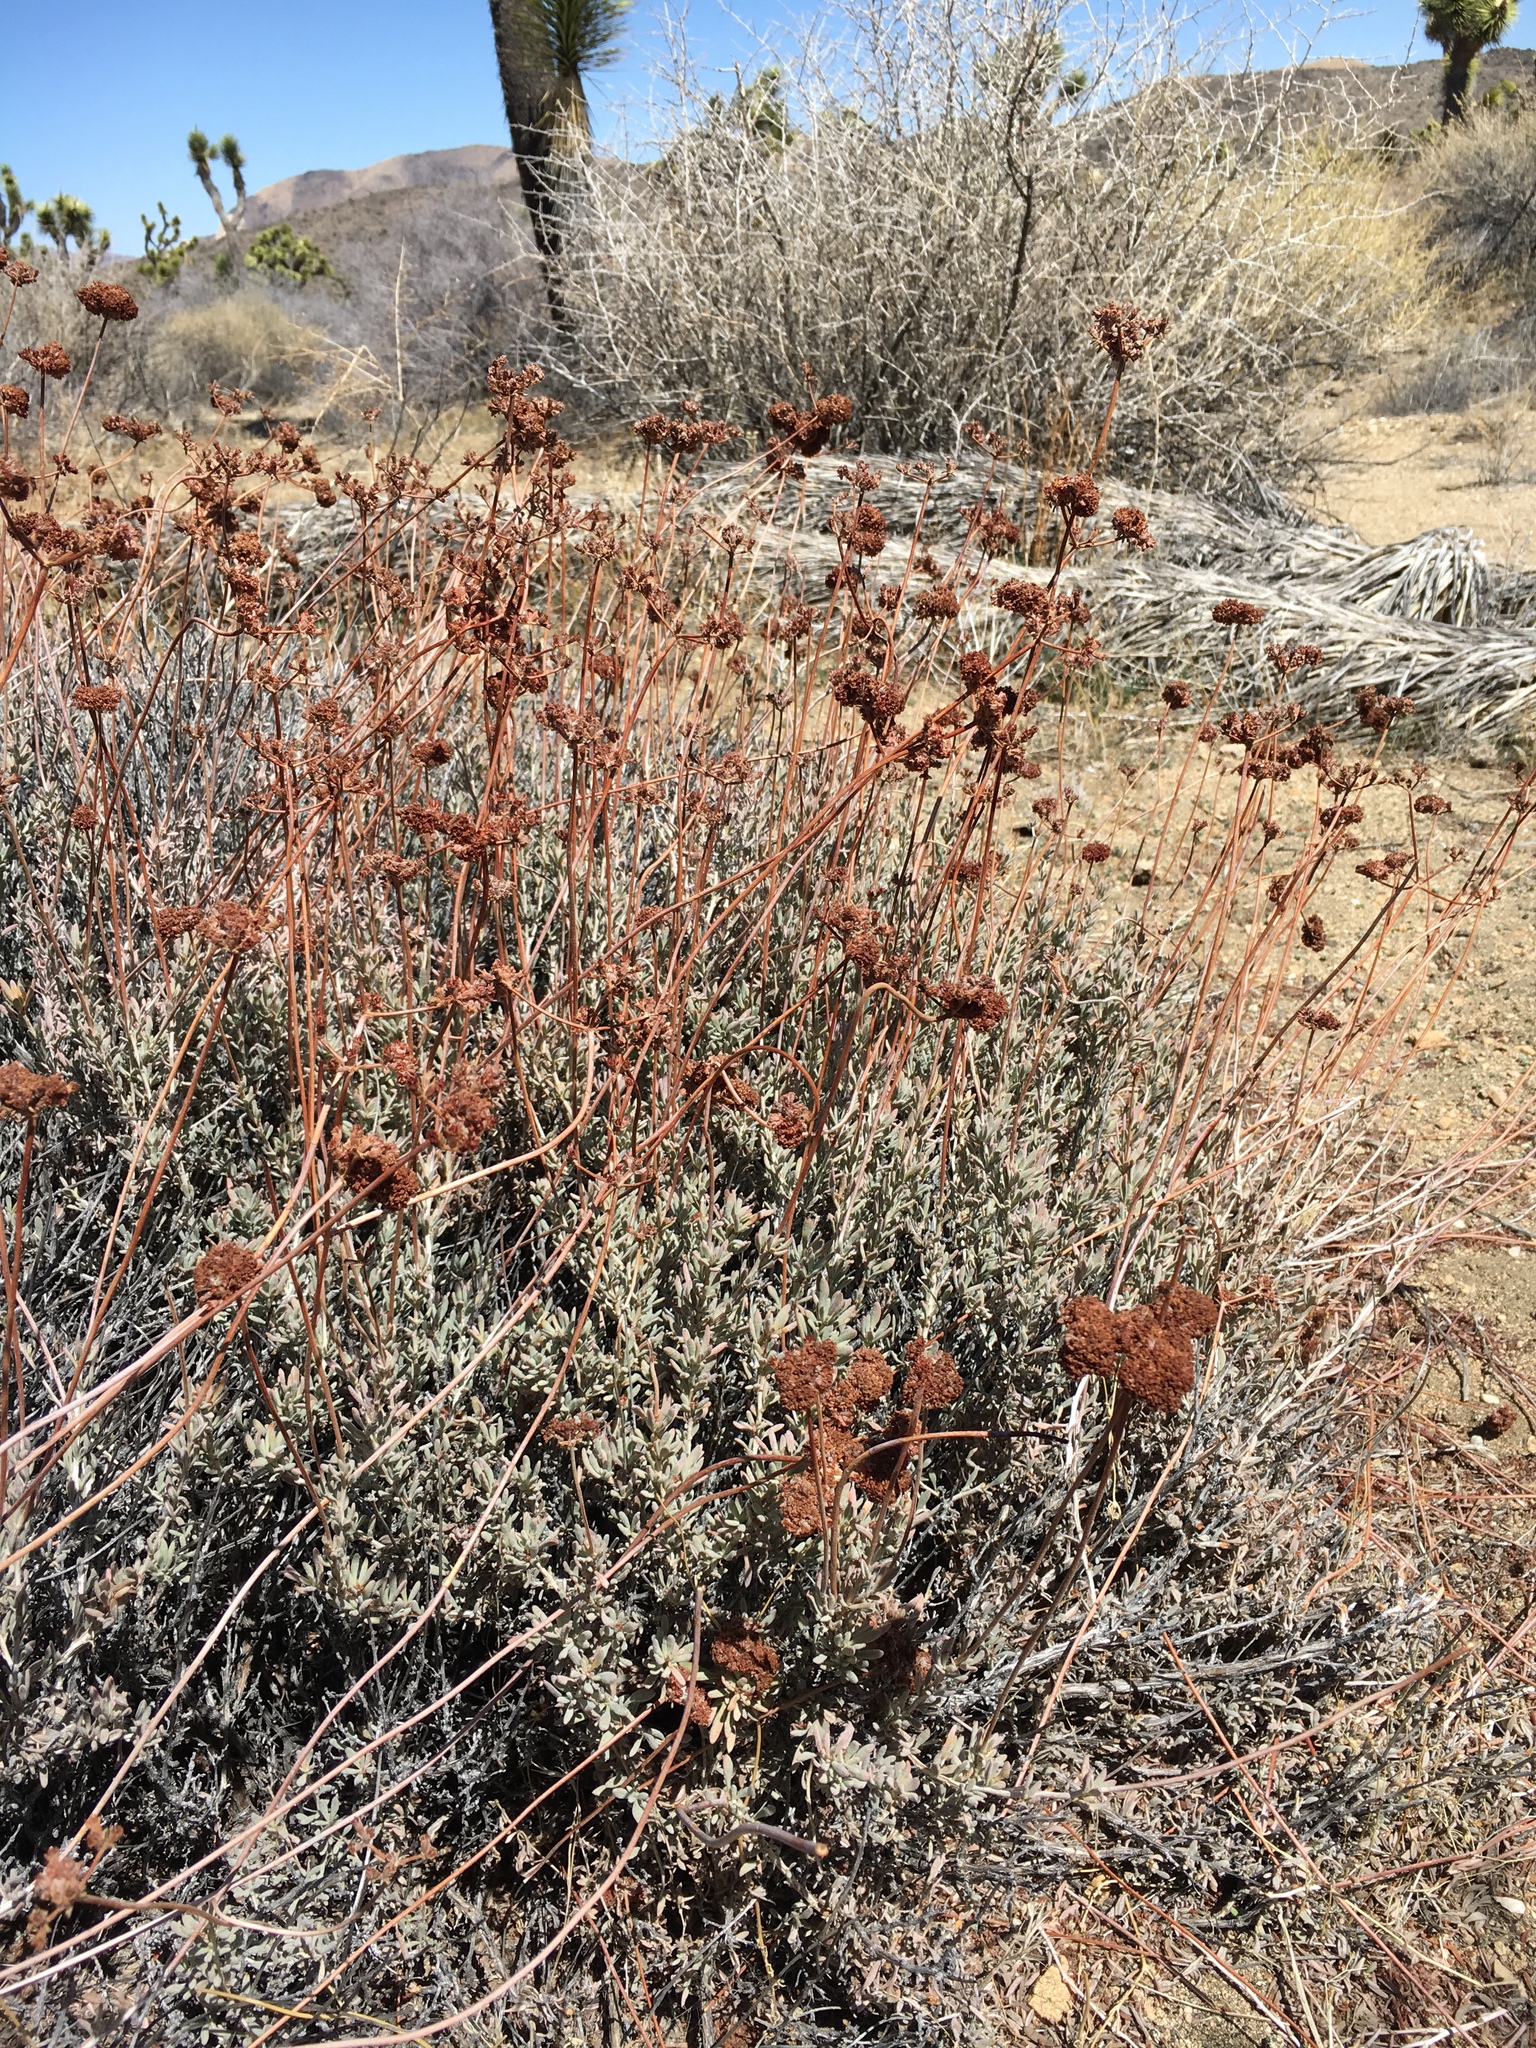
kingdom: Plantae
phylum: Tracheophyta
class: Magnoliopsida
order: Caryophyllales
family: Polygonaceae
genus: Eriogonum
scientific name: Eriogonum fasciculatum
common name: California wild buckwheat
